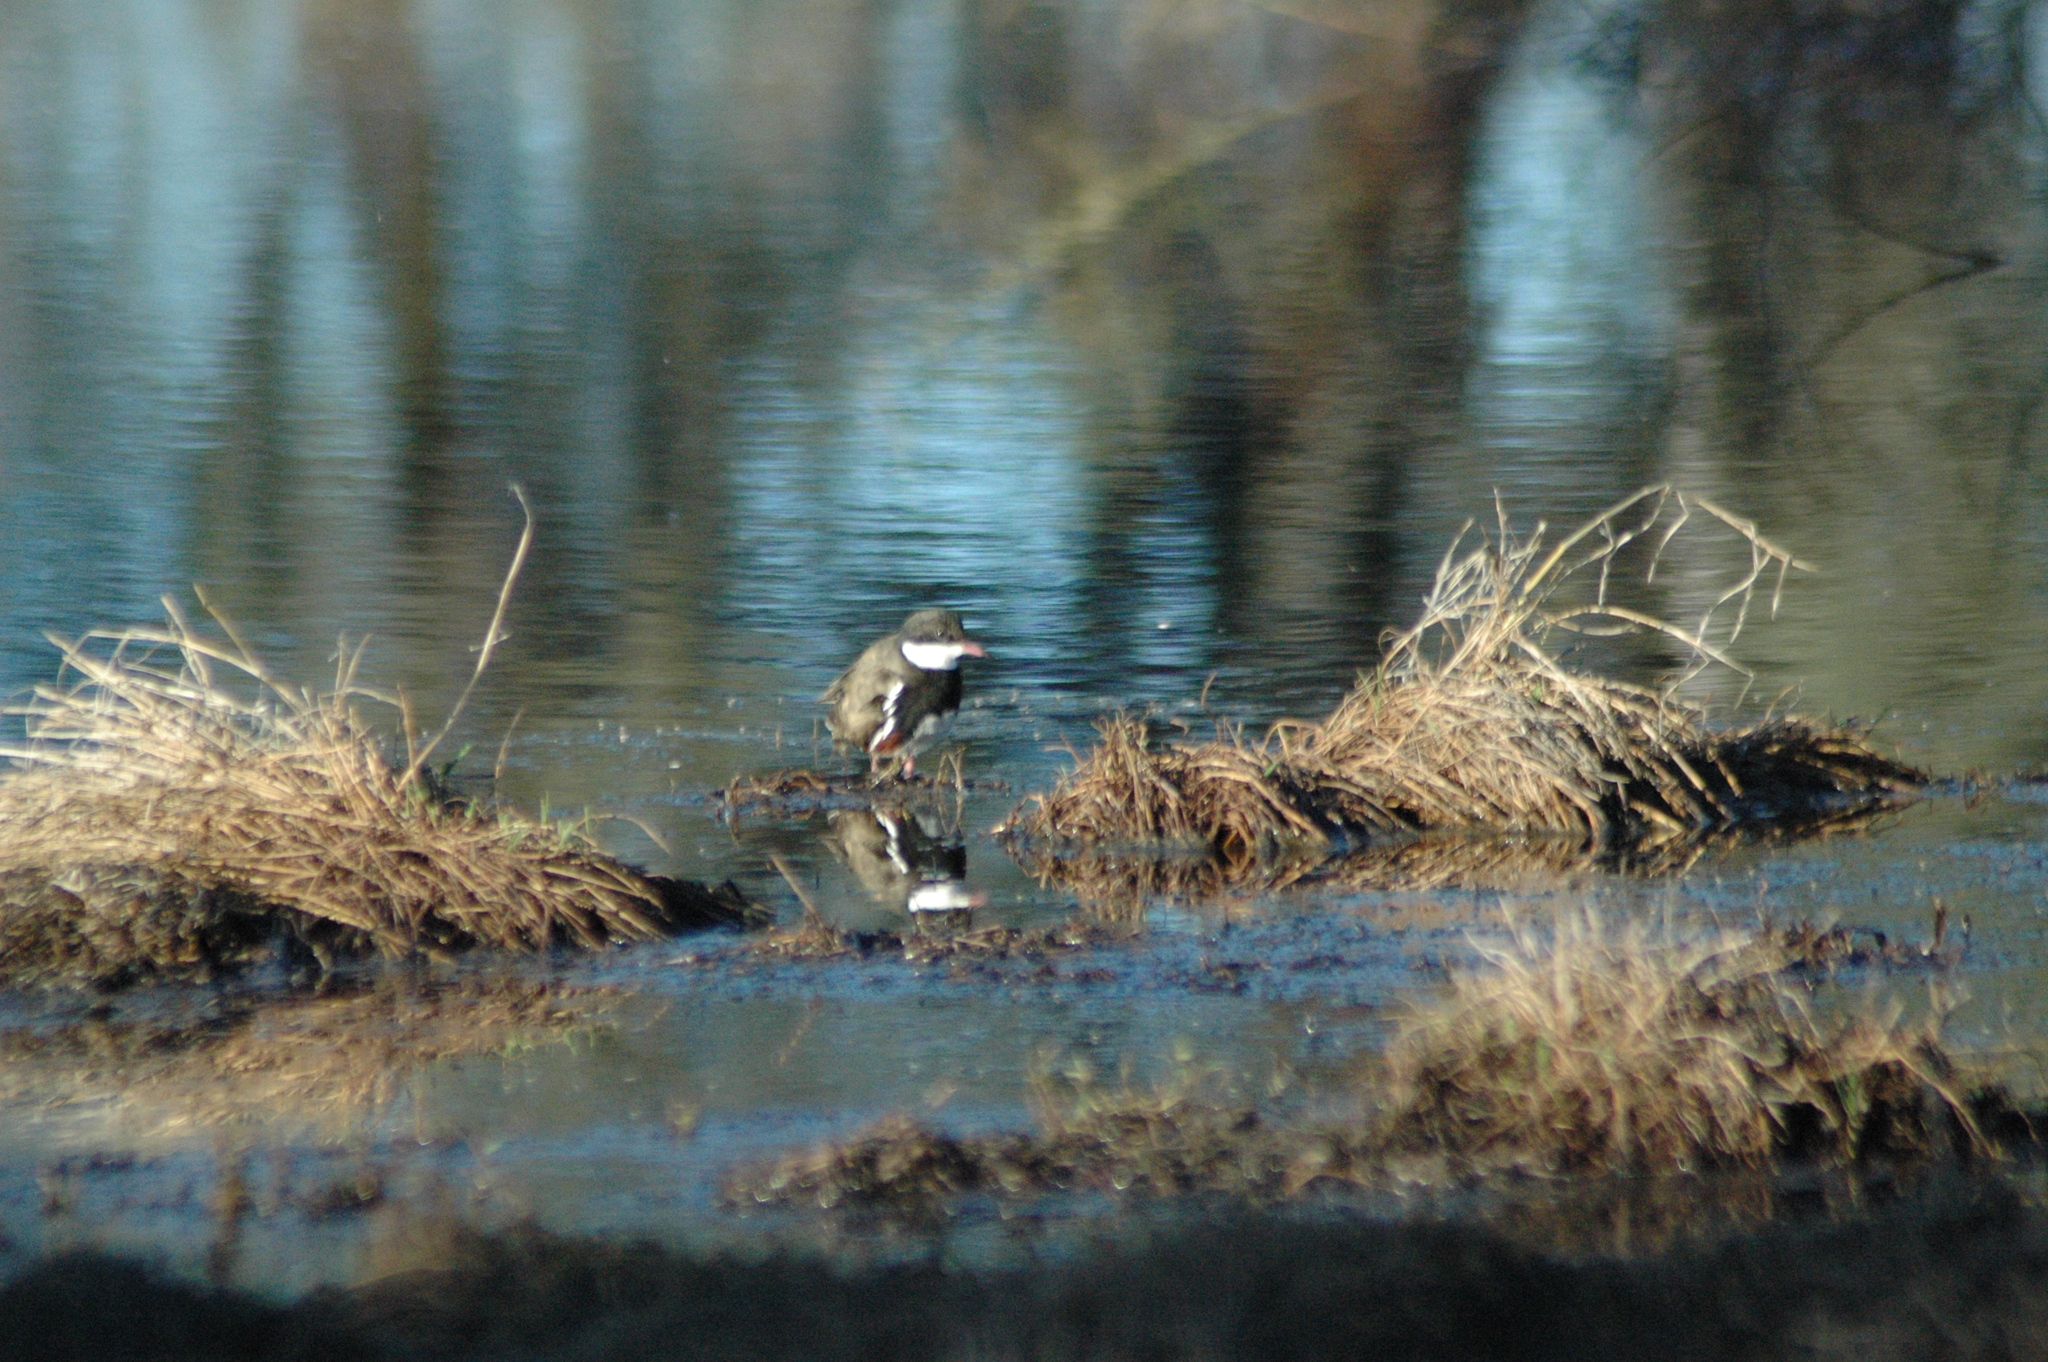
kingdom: Animalia
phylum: Chordata
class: Aves
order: Charadriiformes
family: Charadriidae
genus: Erythrogonys
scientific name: Erythrogonys cinctus
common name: Red-kneed dotterel
